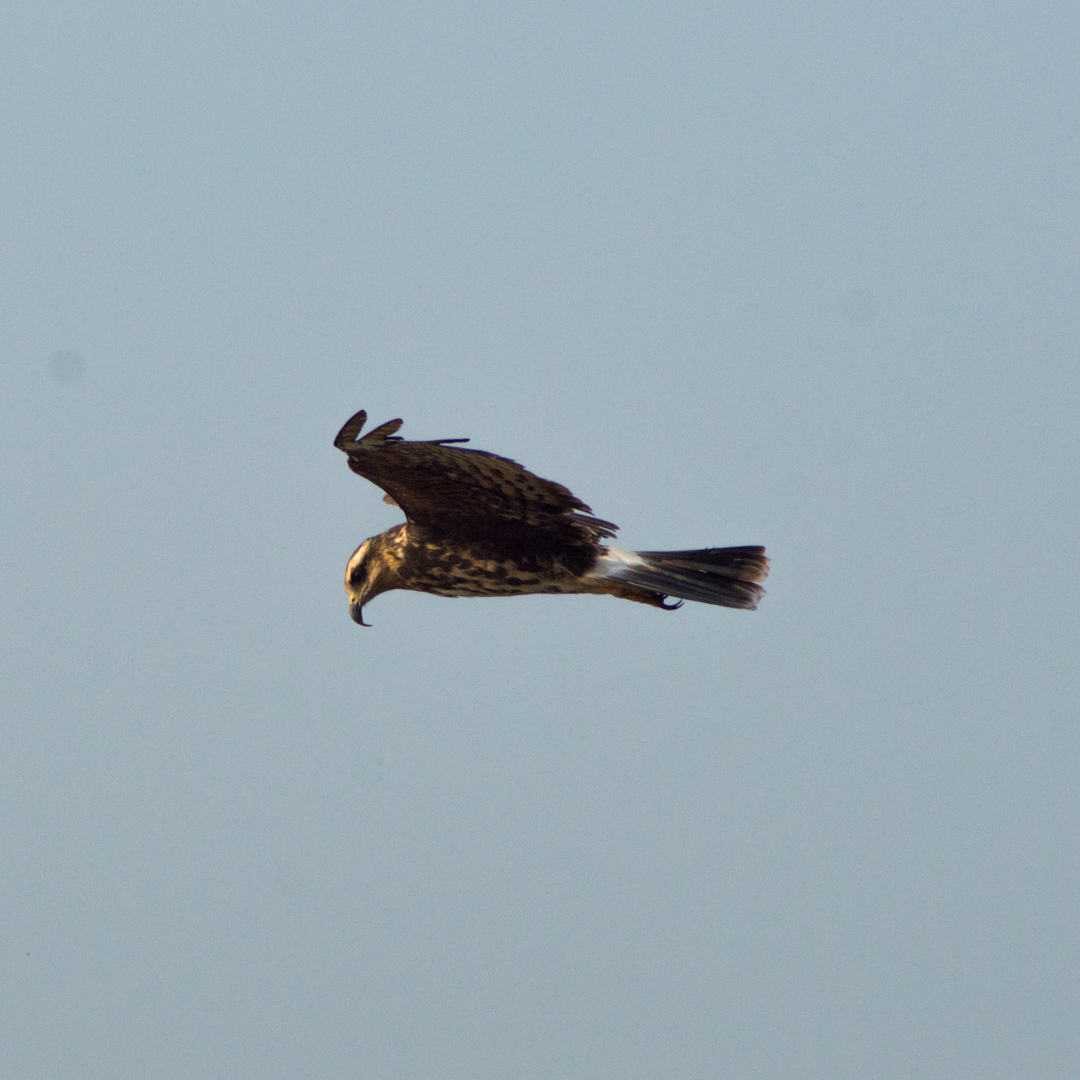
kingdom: Animalia
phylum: Chordata
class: Aves
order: Accipitriformes
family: Accipitridae
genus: Rostrhamus
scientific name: Rostrhamus sociabilis
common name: Snail kite
